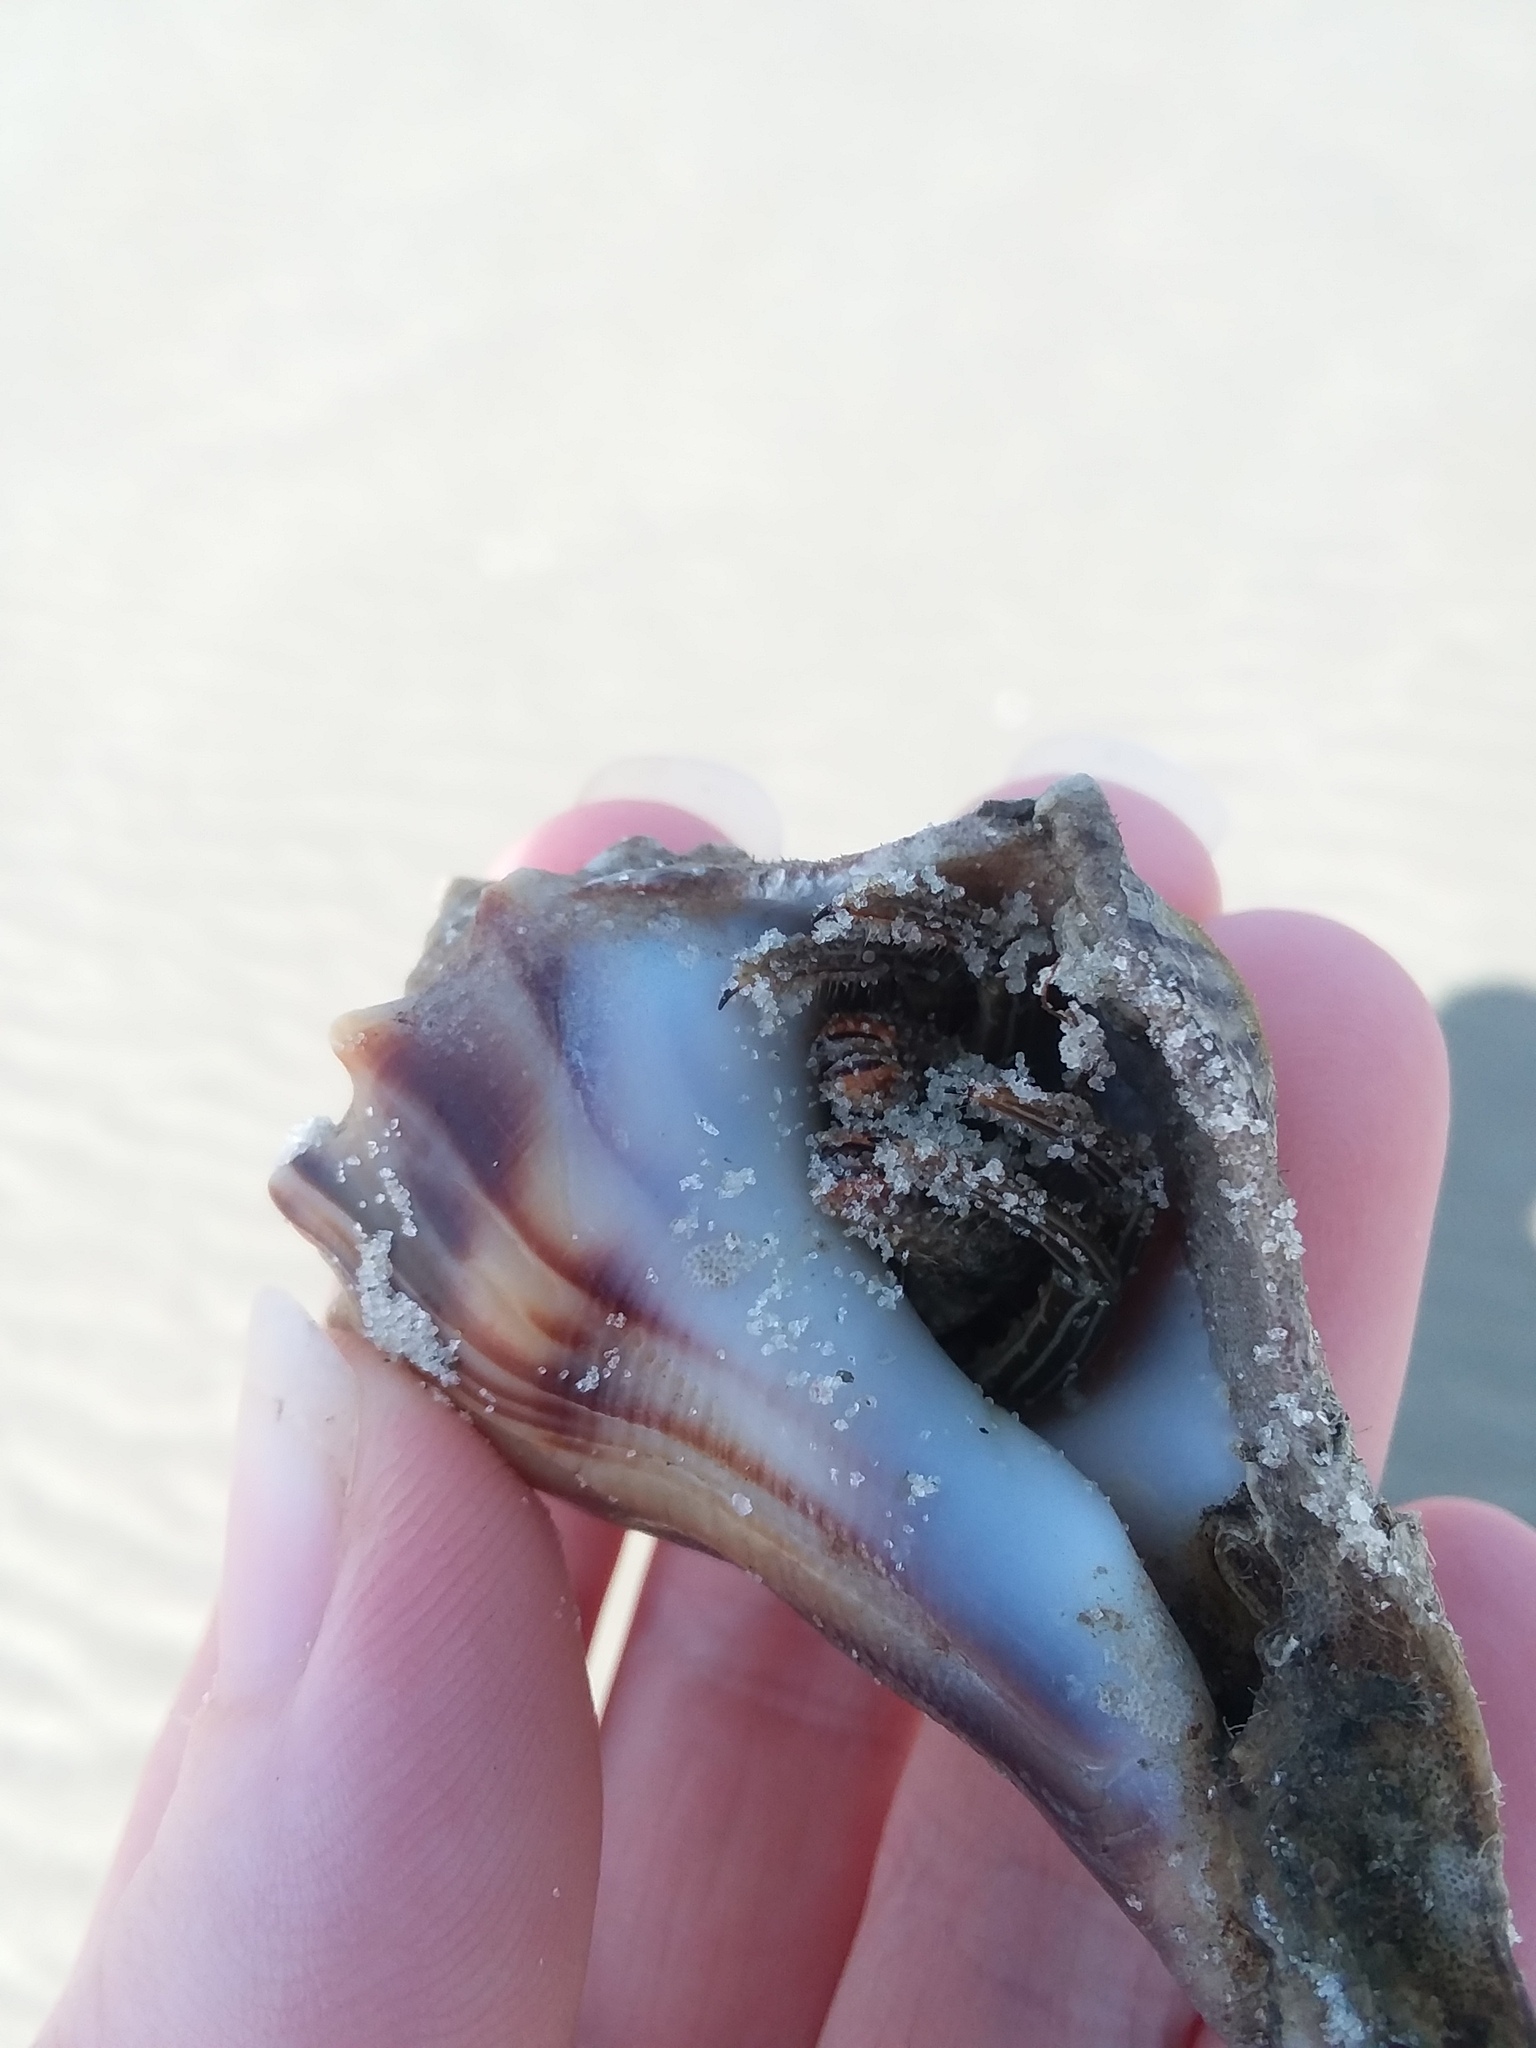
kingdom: Animalia
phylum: Arthropoda
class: Malacostraca
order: Decapoda
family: Diogenidae
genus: Clibanarius
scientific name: Clibanarius vittatus
